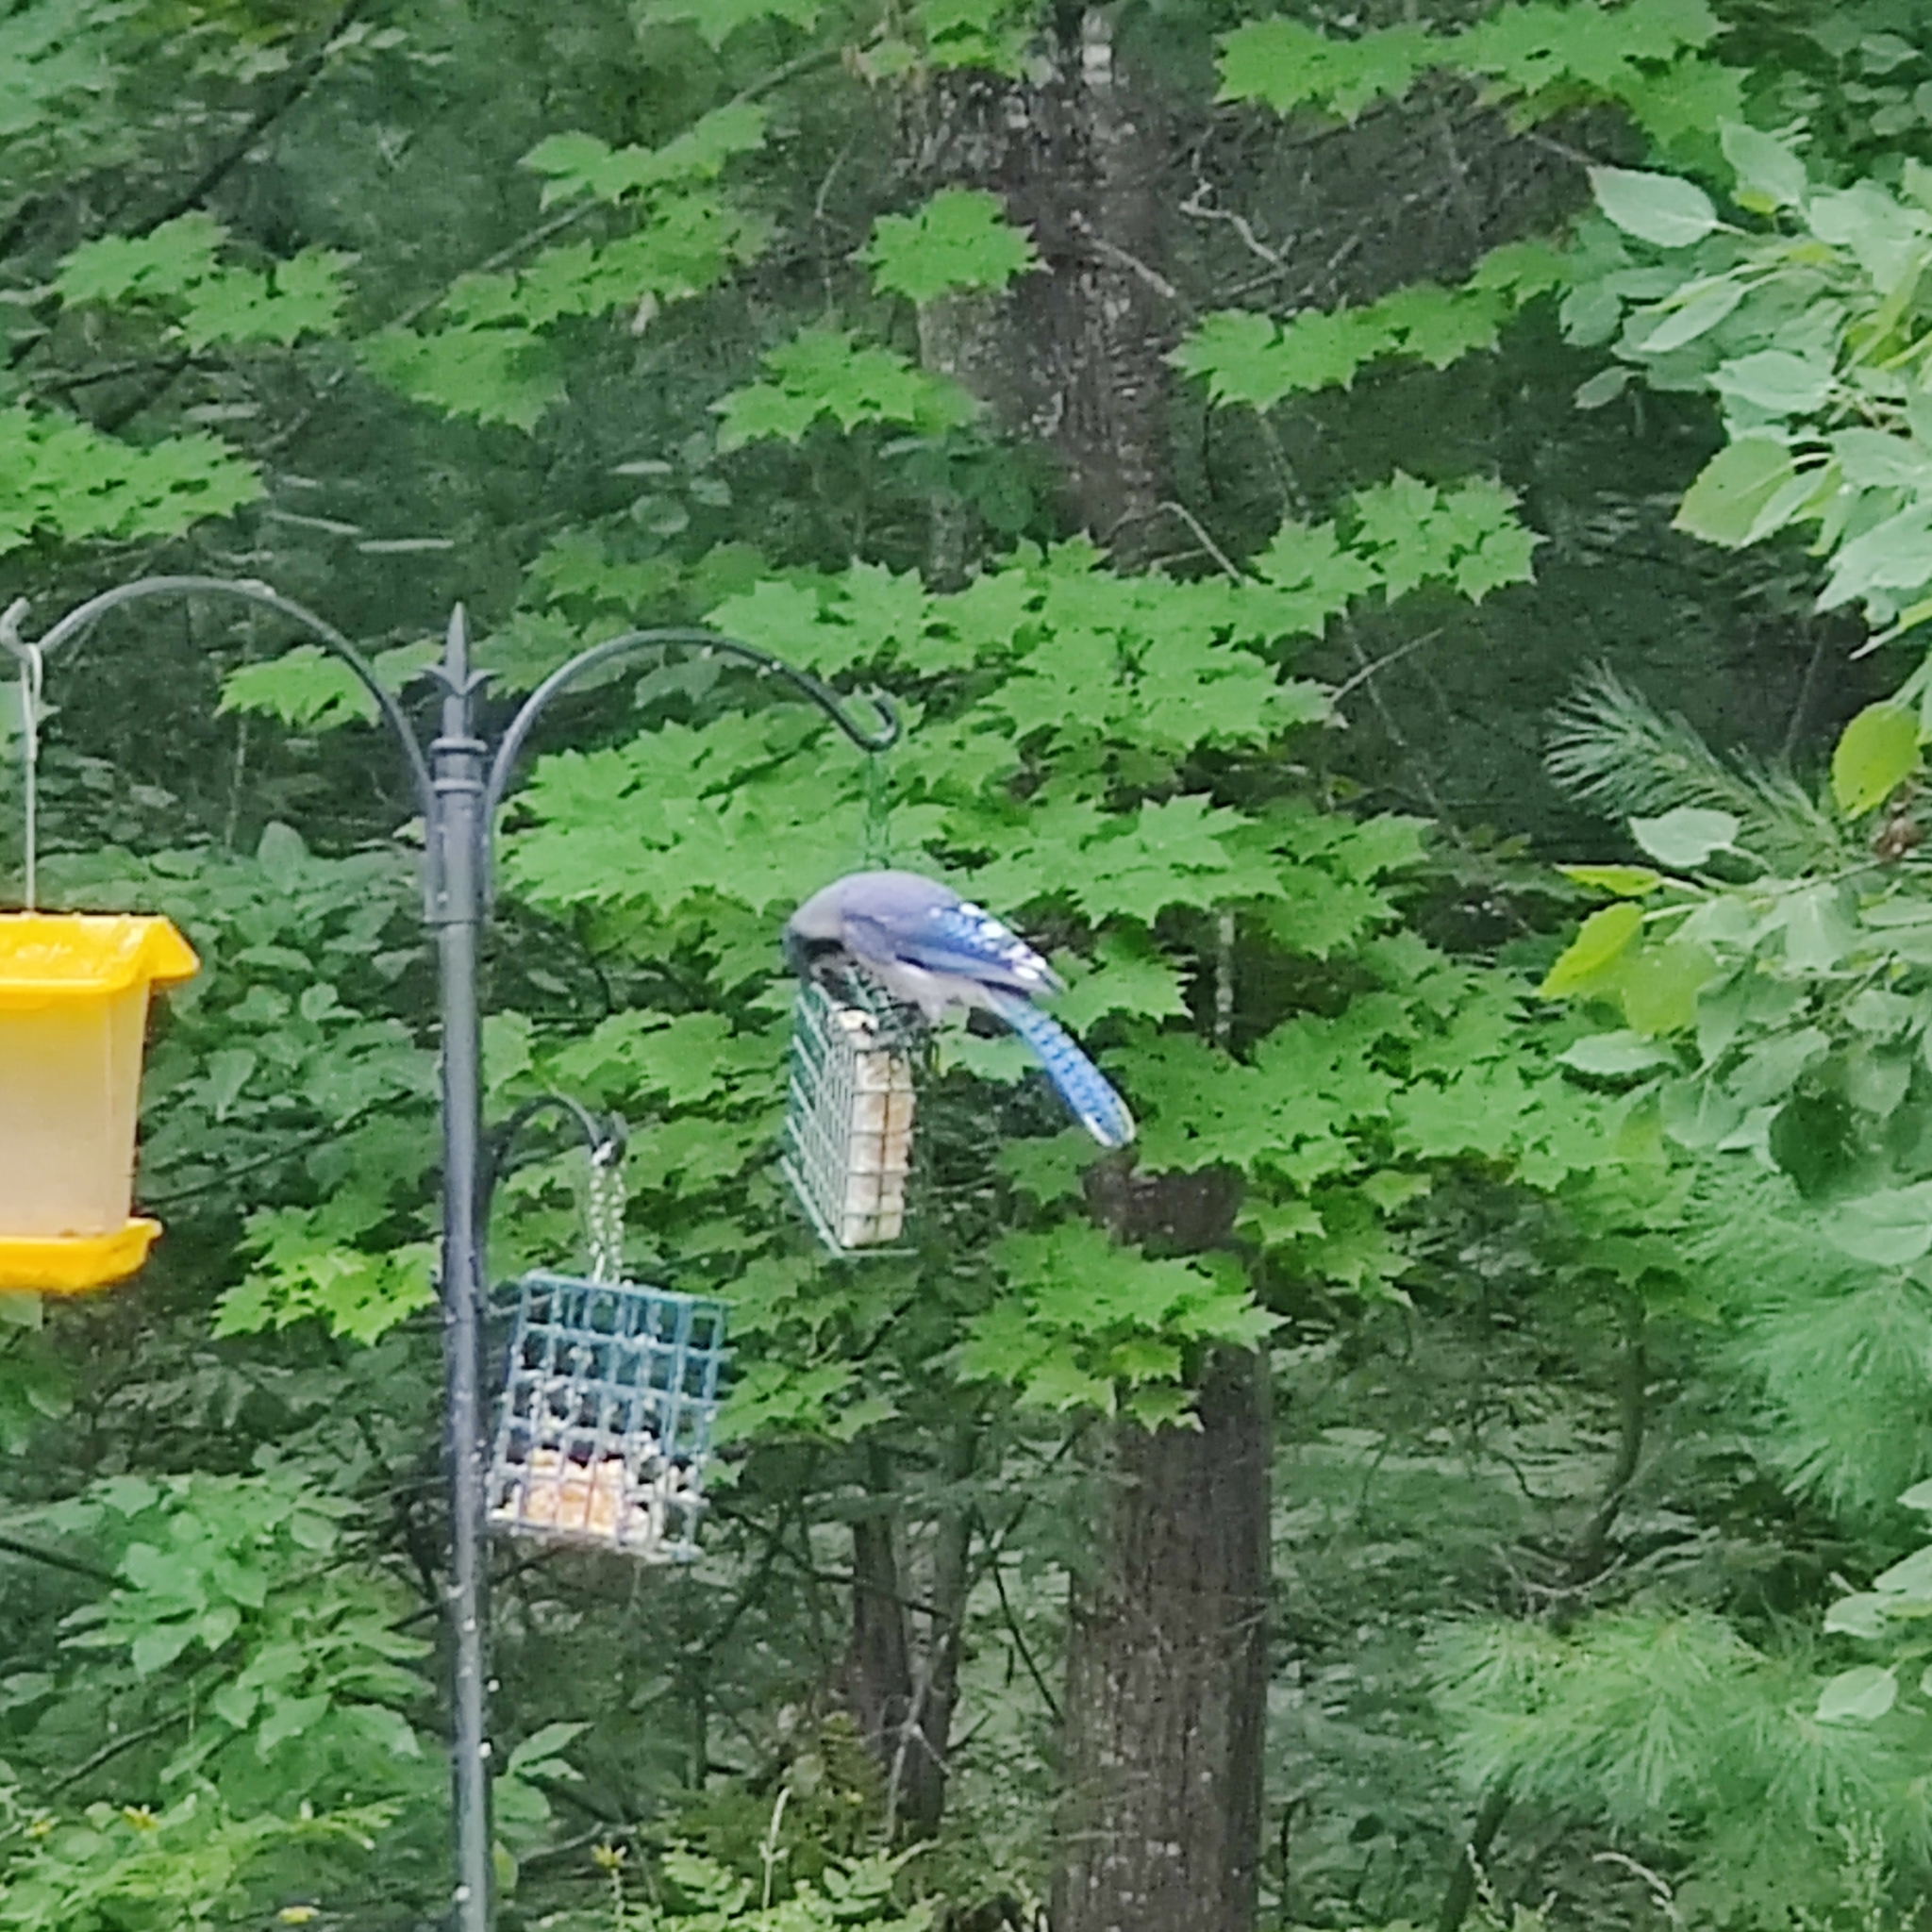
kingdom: Animalia
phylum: Chordata
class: Aves
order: Passeriformes
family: Corvidae
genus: Cyanocitta
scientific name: Cyanocitta cristata
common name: Blue jay
